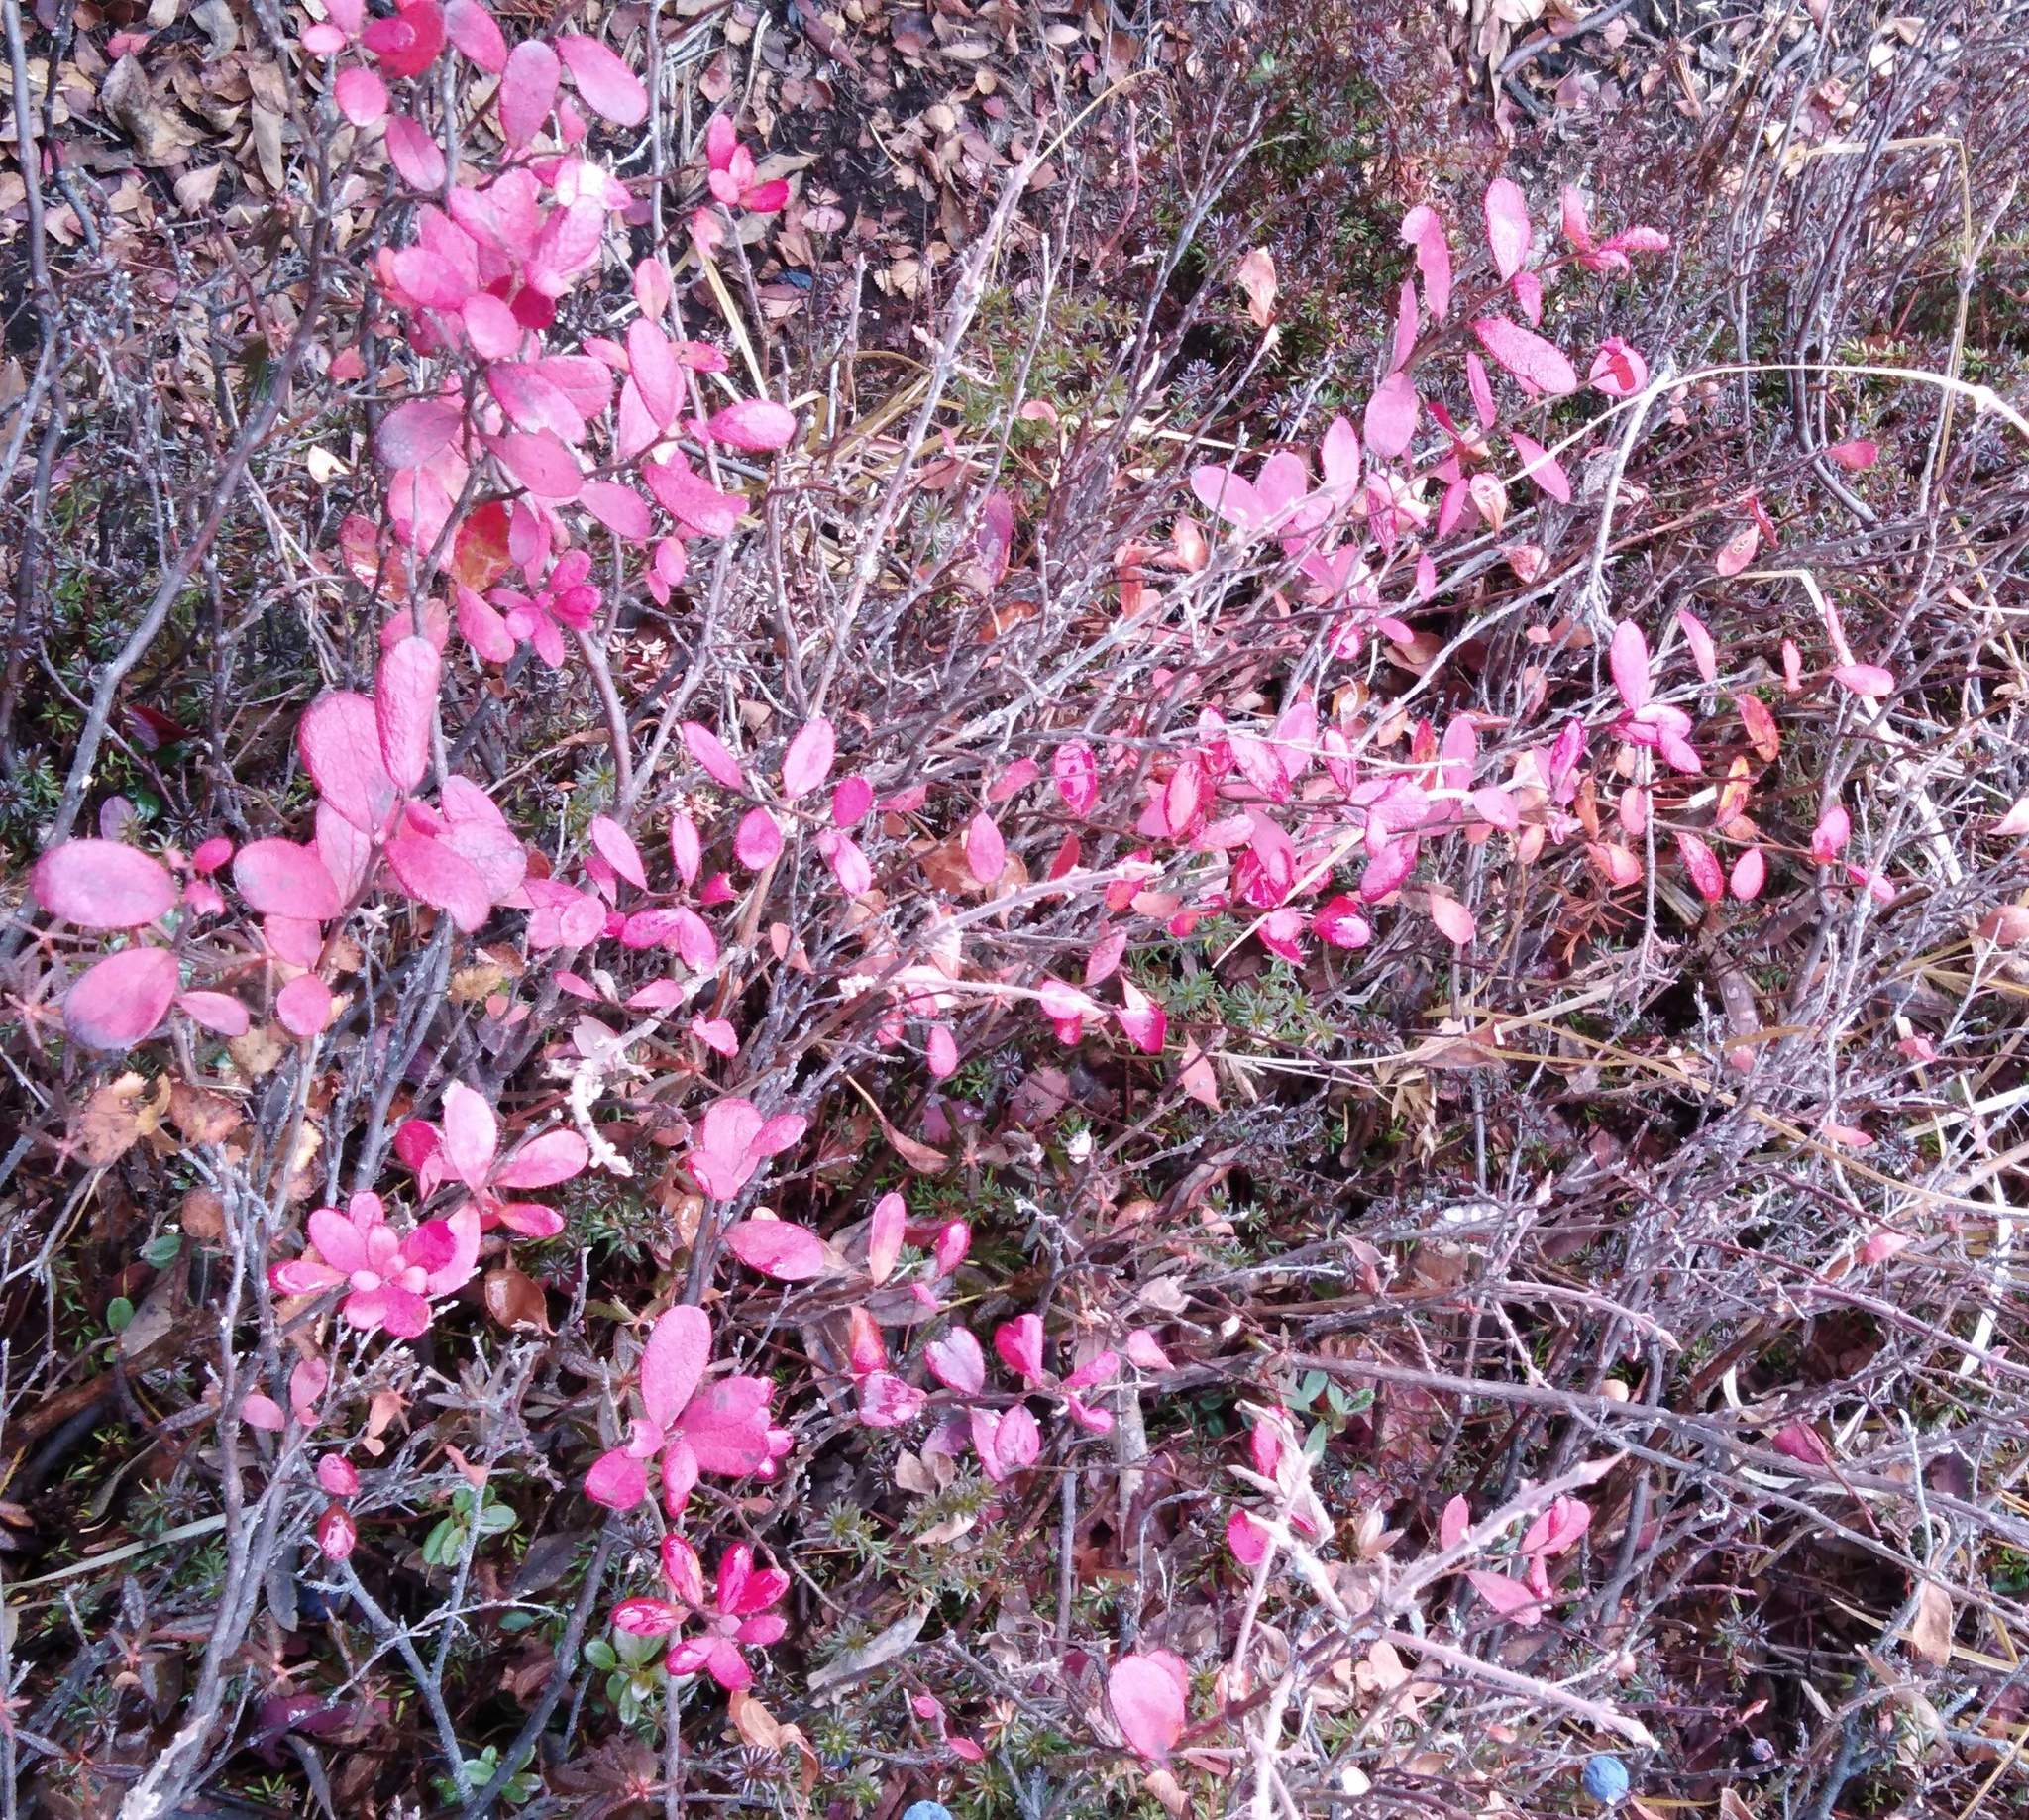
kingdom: Plantae
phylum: Tracheophyta
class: Magnoliopsida
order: Ericales
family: Ericaceae
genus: Vaccinium
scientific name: Vaccinium uliginosum
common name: Bog bilberry
